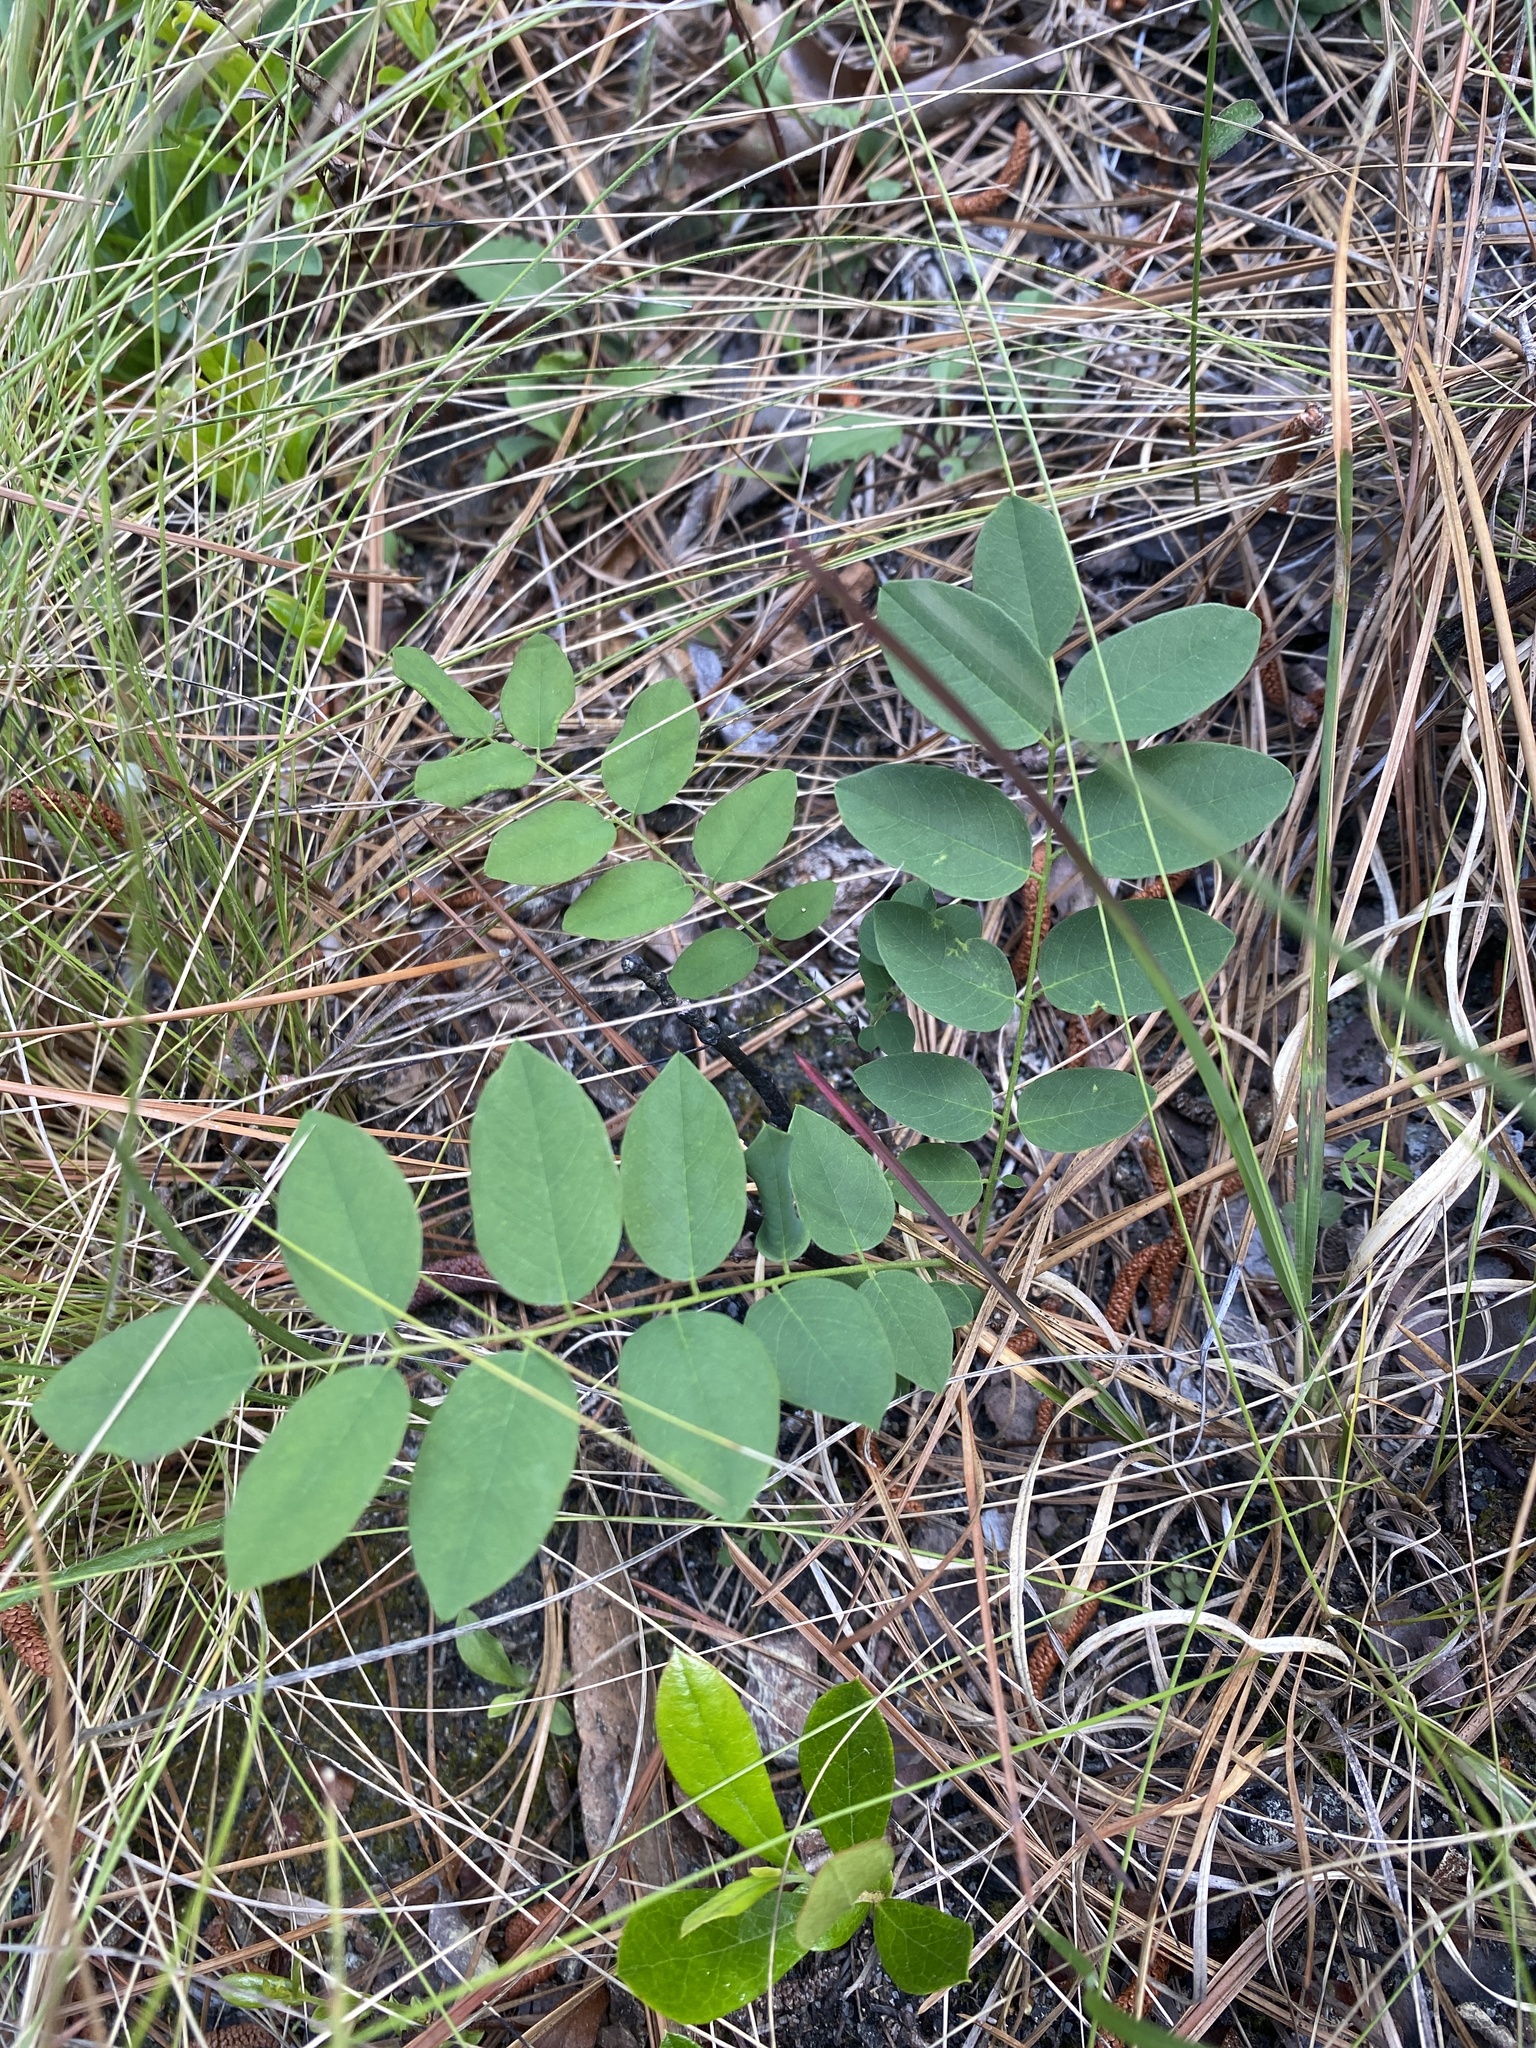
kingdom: Plantae
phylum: Tracheophyta
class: Magnoliopsida
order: Fabales
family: Fabaceae
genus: Robinia
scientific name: Robinia hispida
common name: Bristly locust
